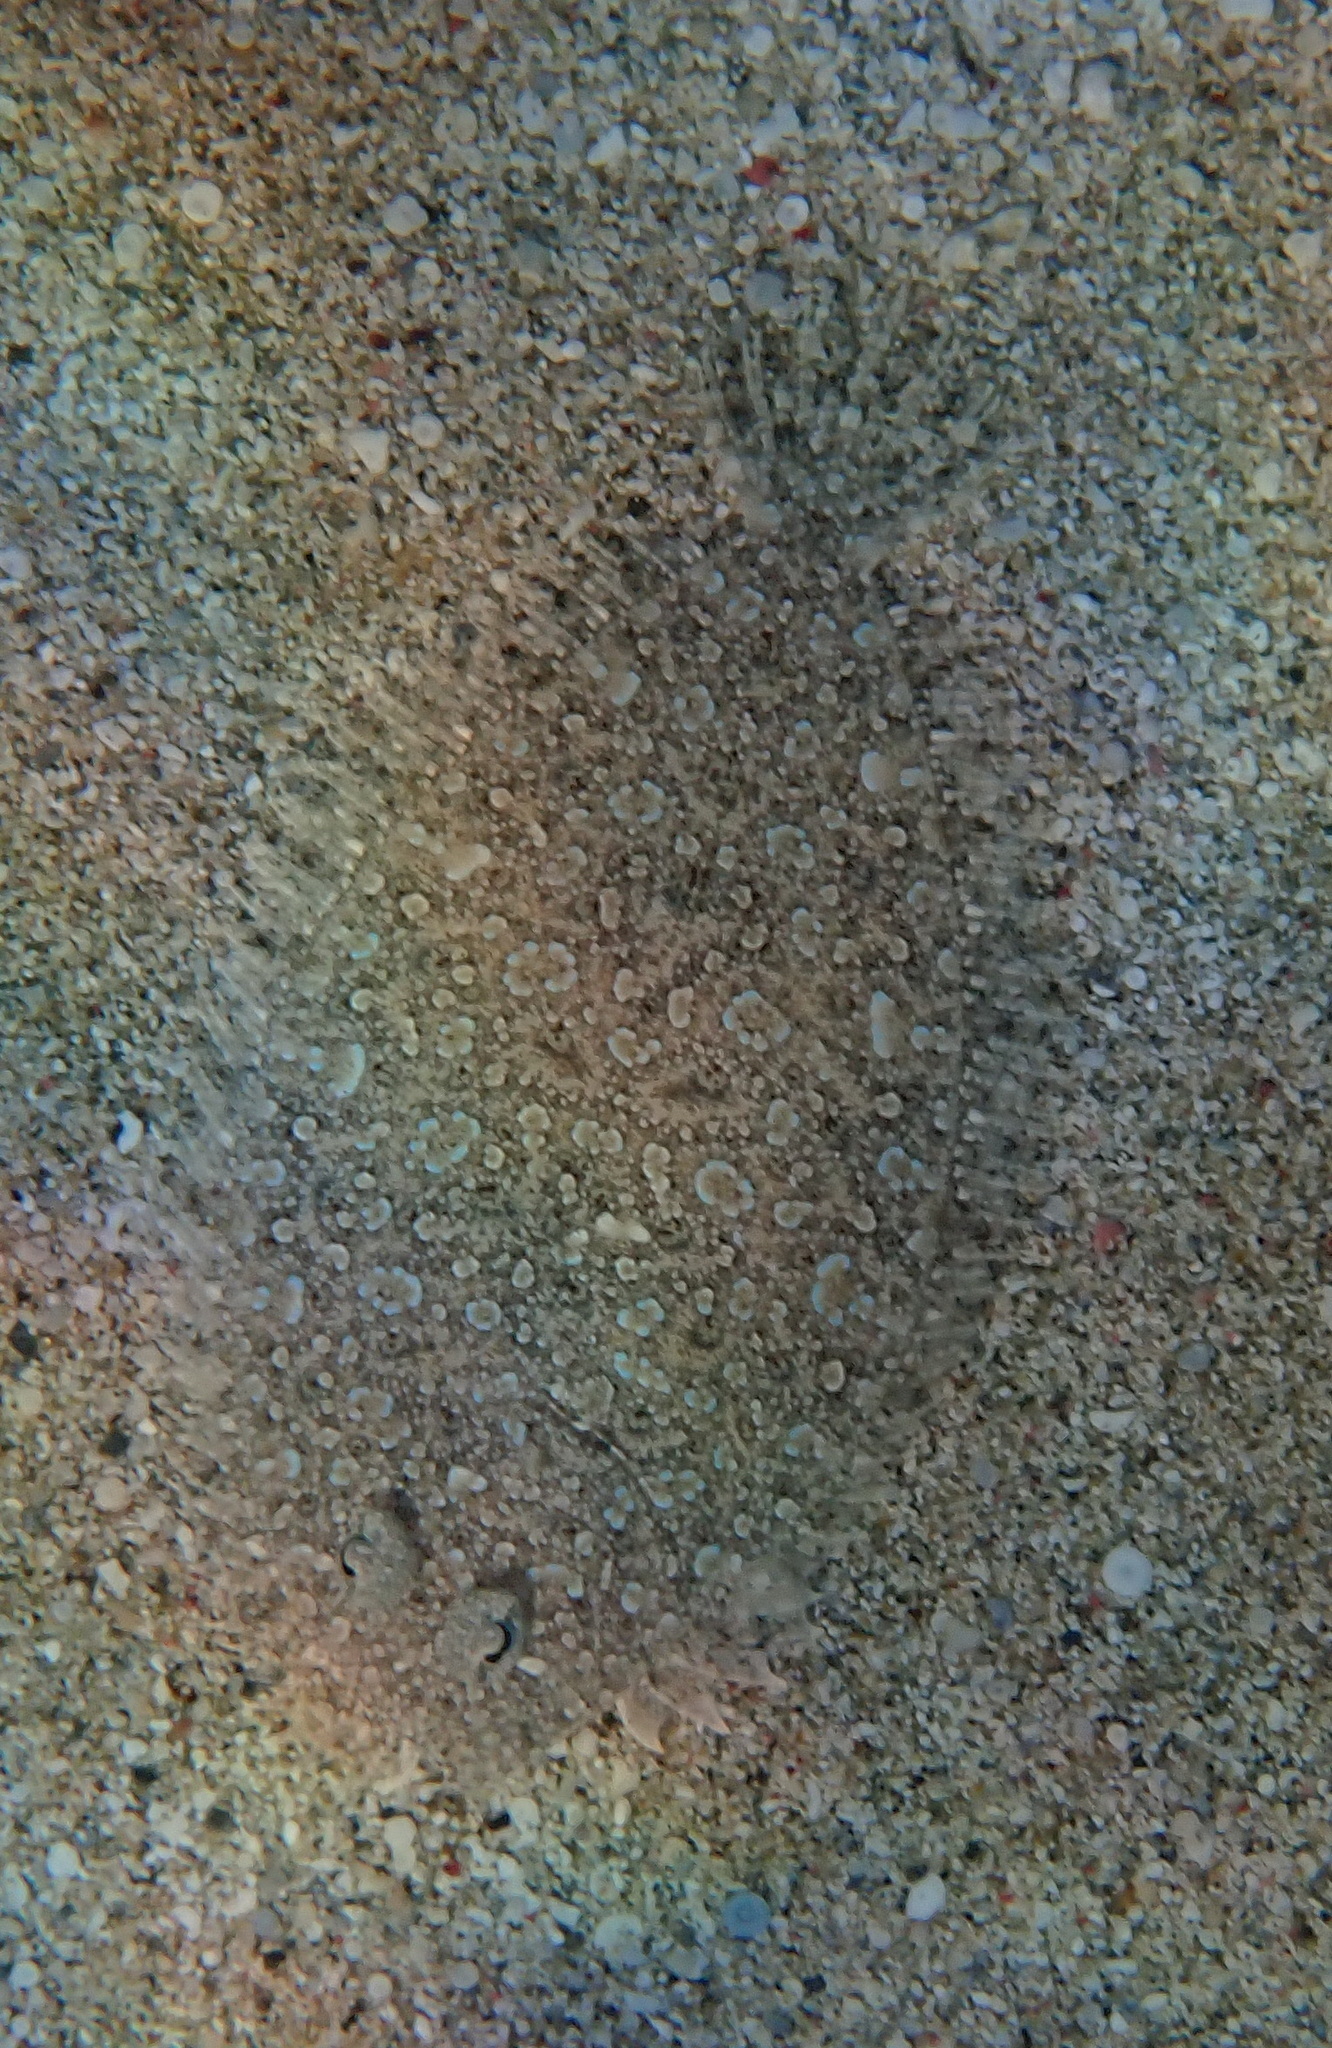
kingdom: Animalia
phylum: Chordata
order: Pleuronectiformes
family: Bothidae
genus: Bothus
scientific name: Bothus pantherinus
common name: Leopard flounder
